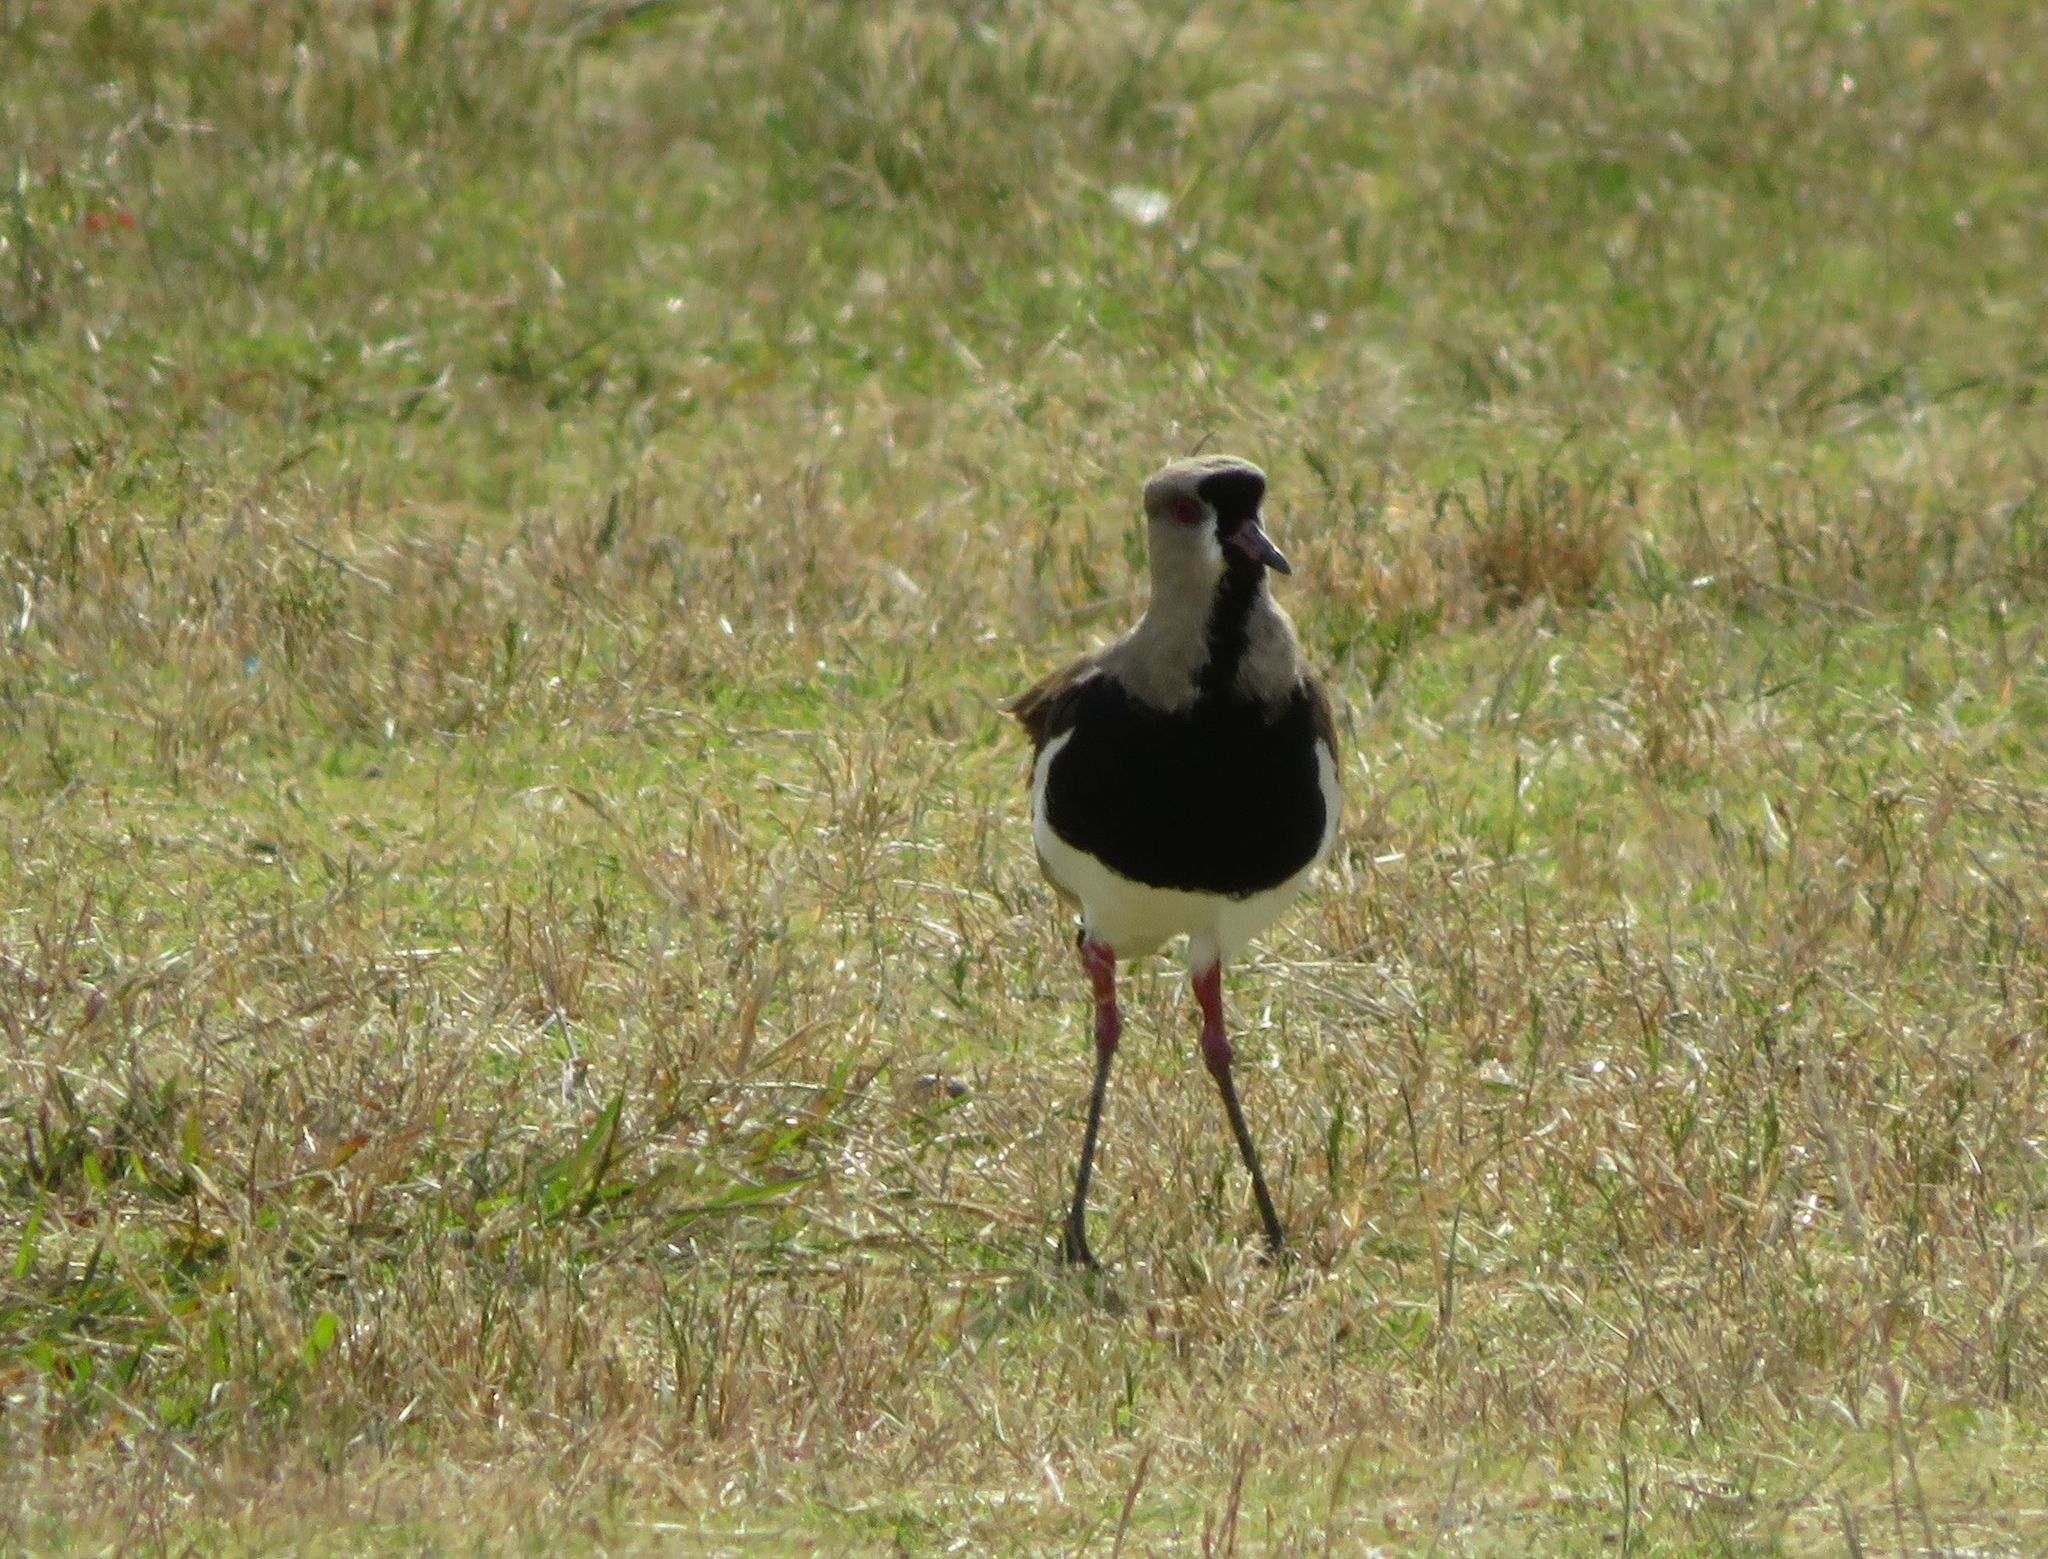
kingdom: Animalia
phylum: Chordata
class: Aves
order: Charadriiformes
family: Charadriidae
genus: Vanellus
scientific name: Vanellus chilensis
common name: Southern lapwing
